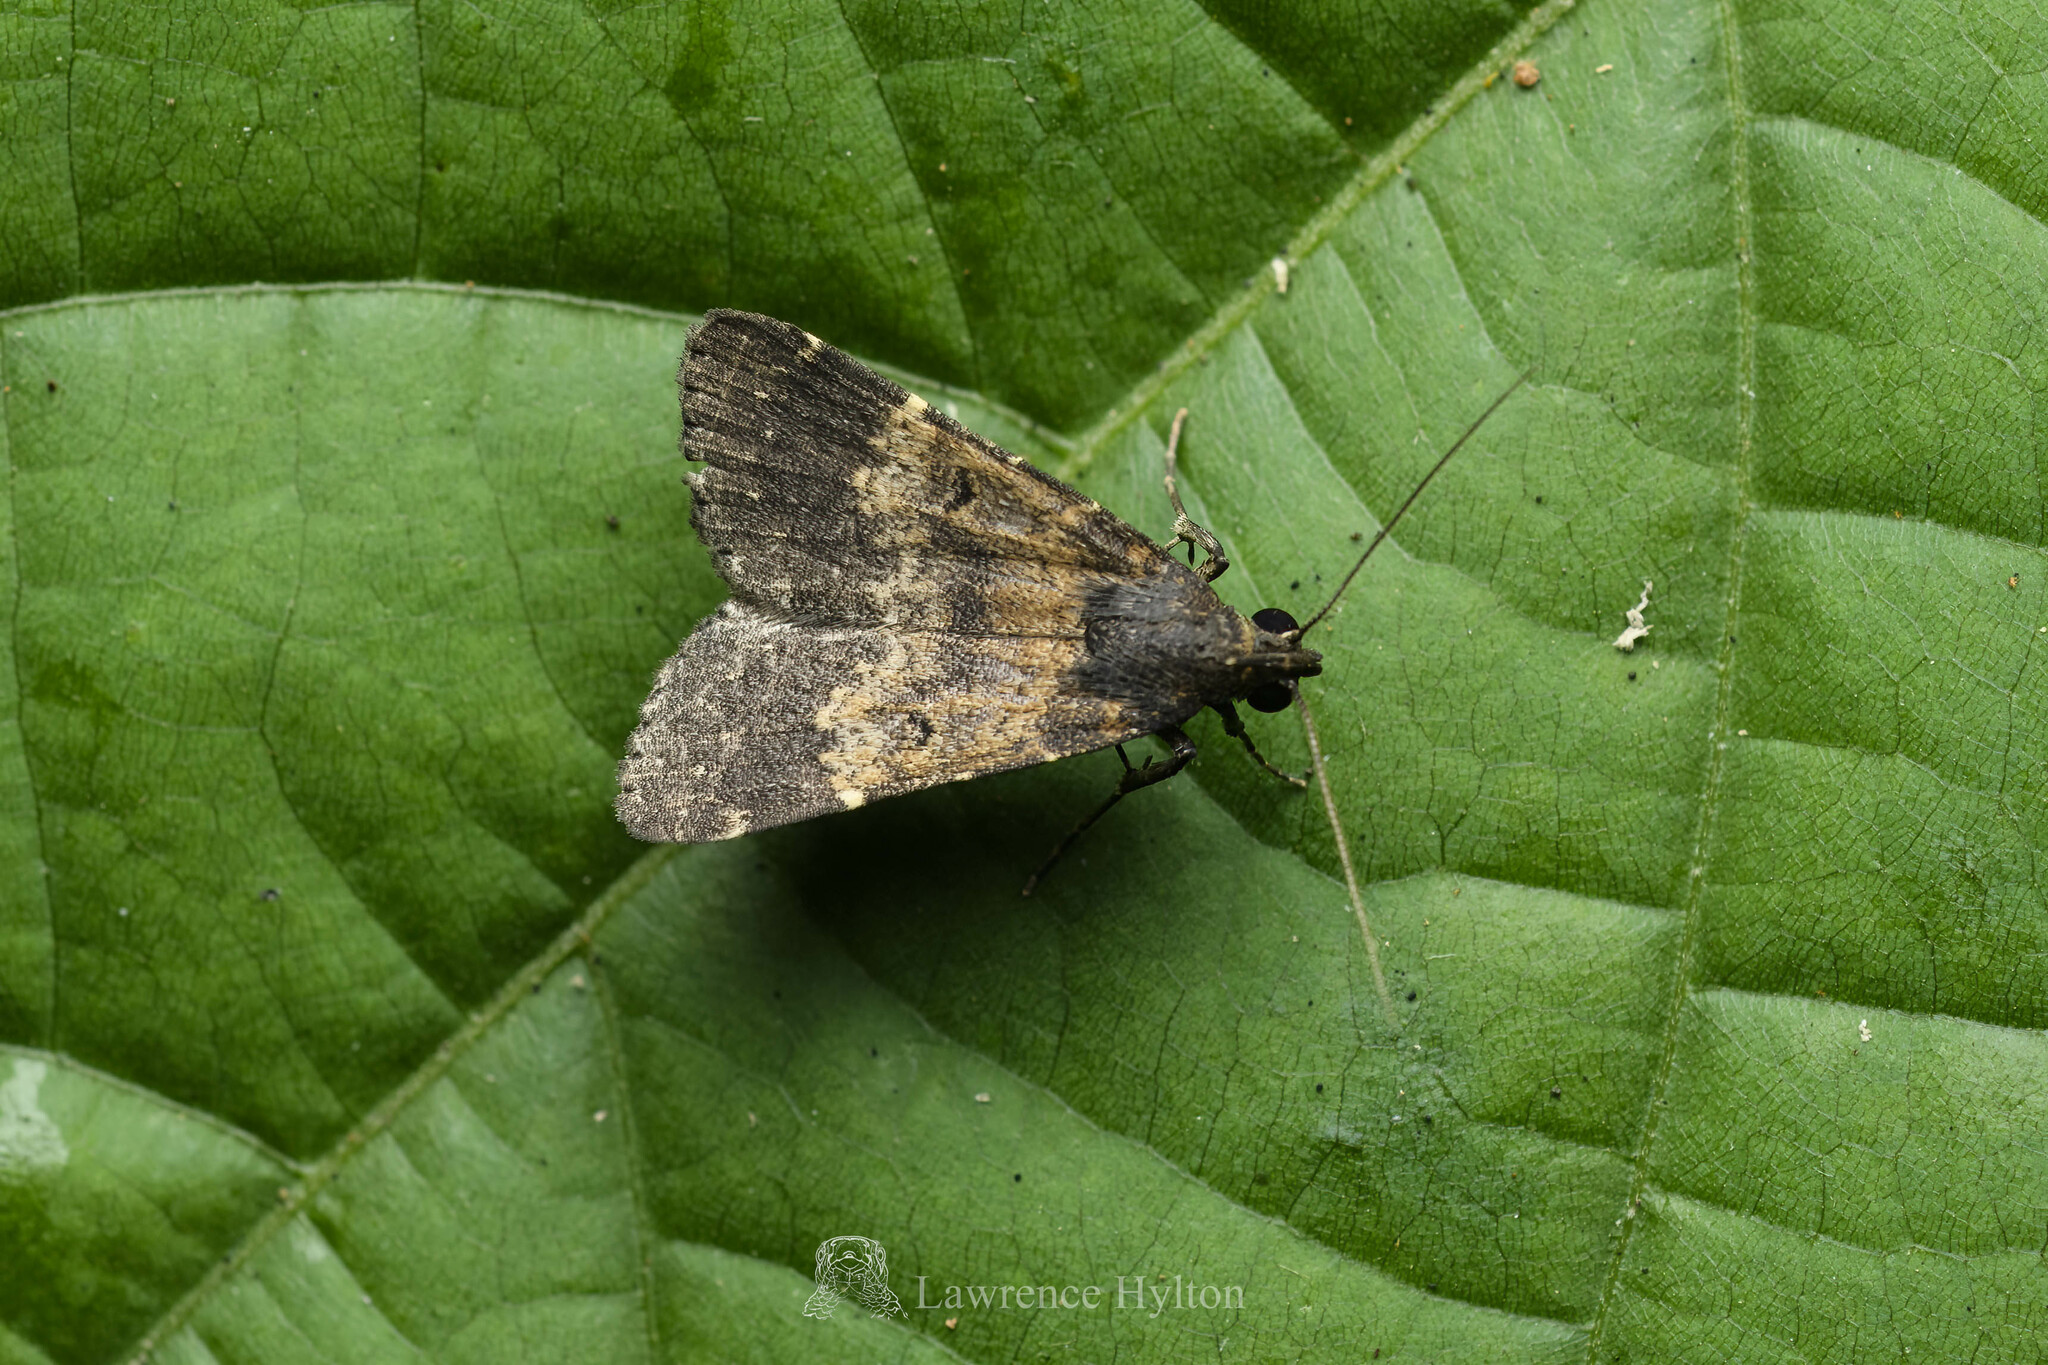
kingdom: Animalia
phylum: Arthropoda
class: Insecta
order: Lepidoptera
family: Erebidae
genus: Hydrillodes
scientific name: Hydrillodes lentalis
